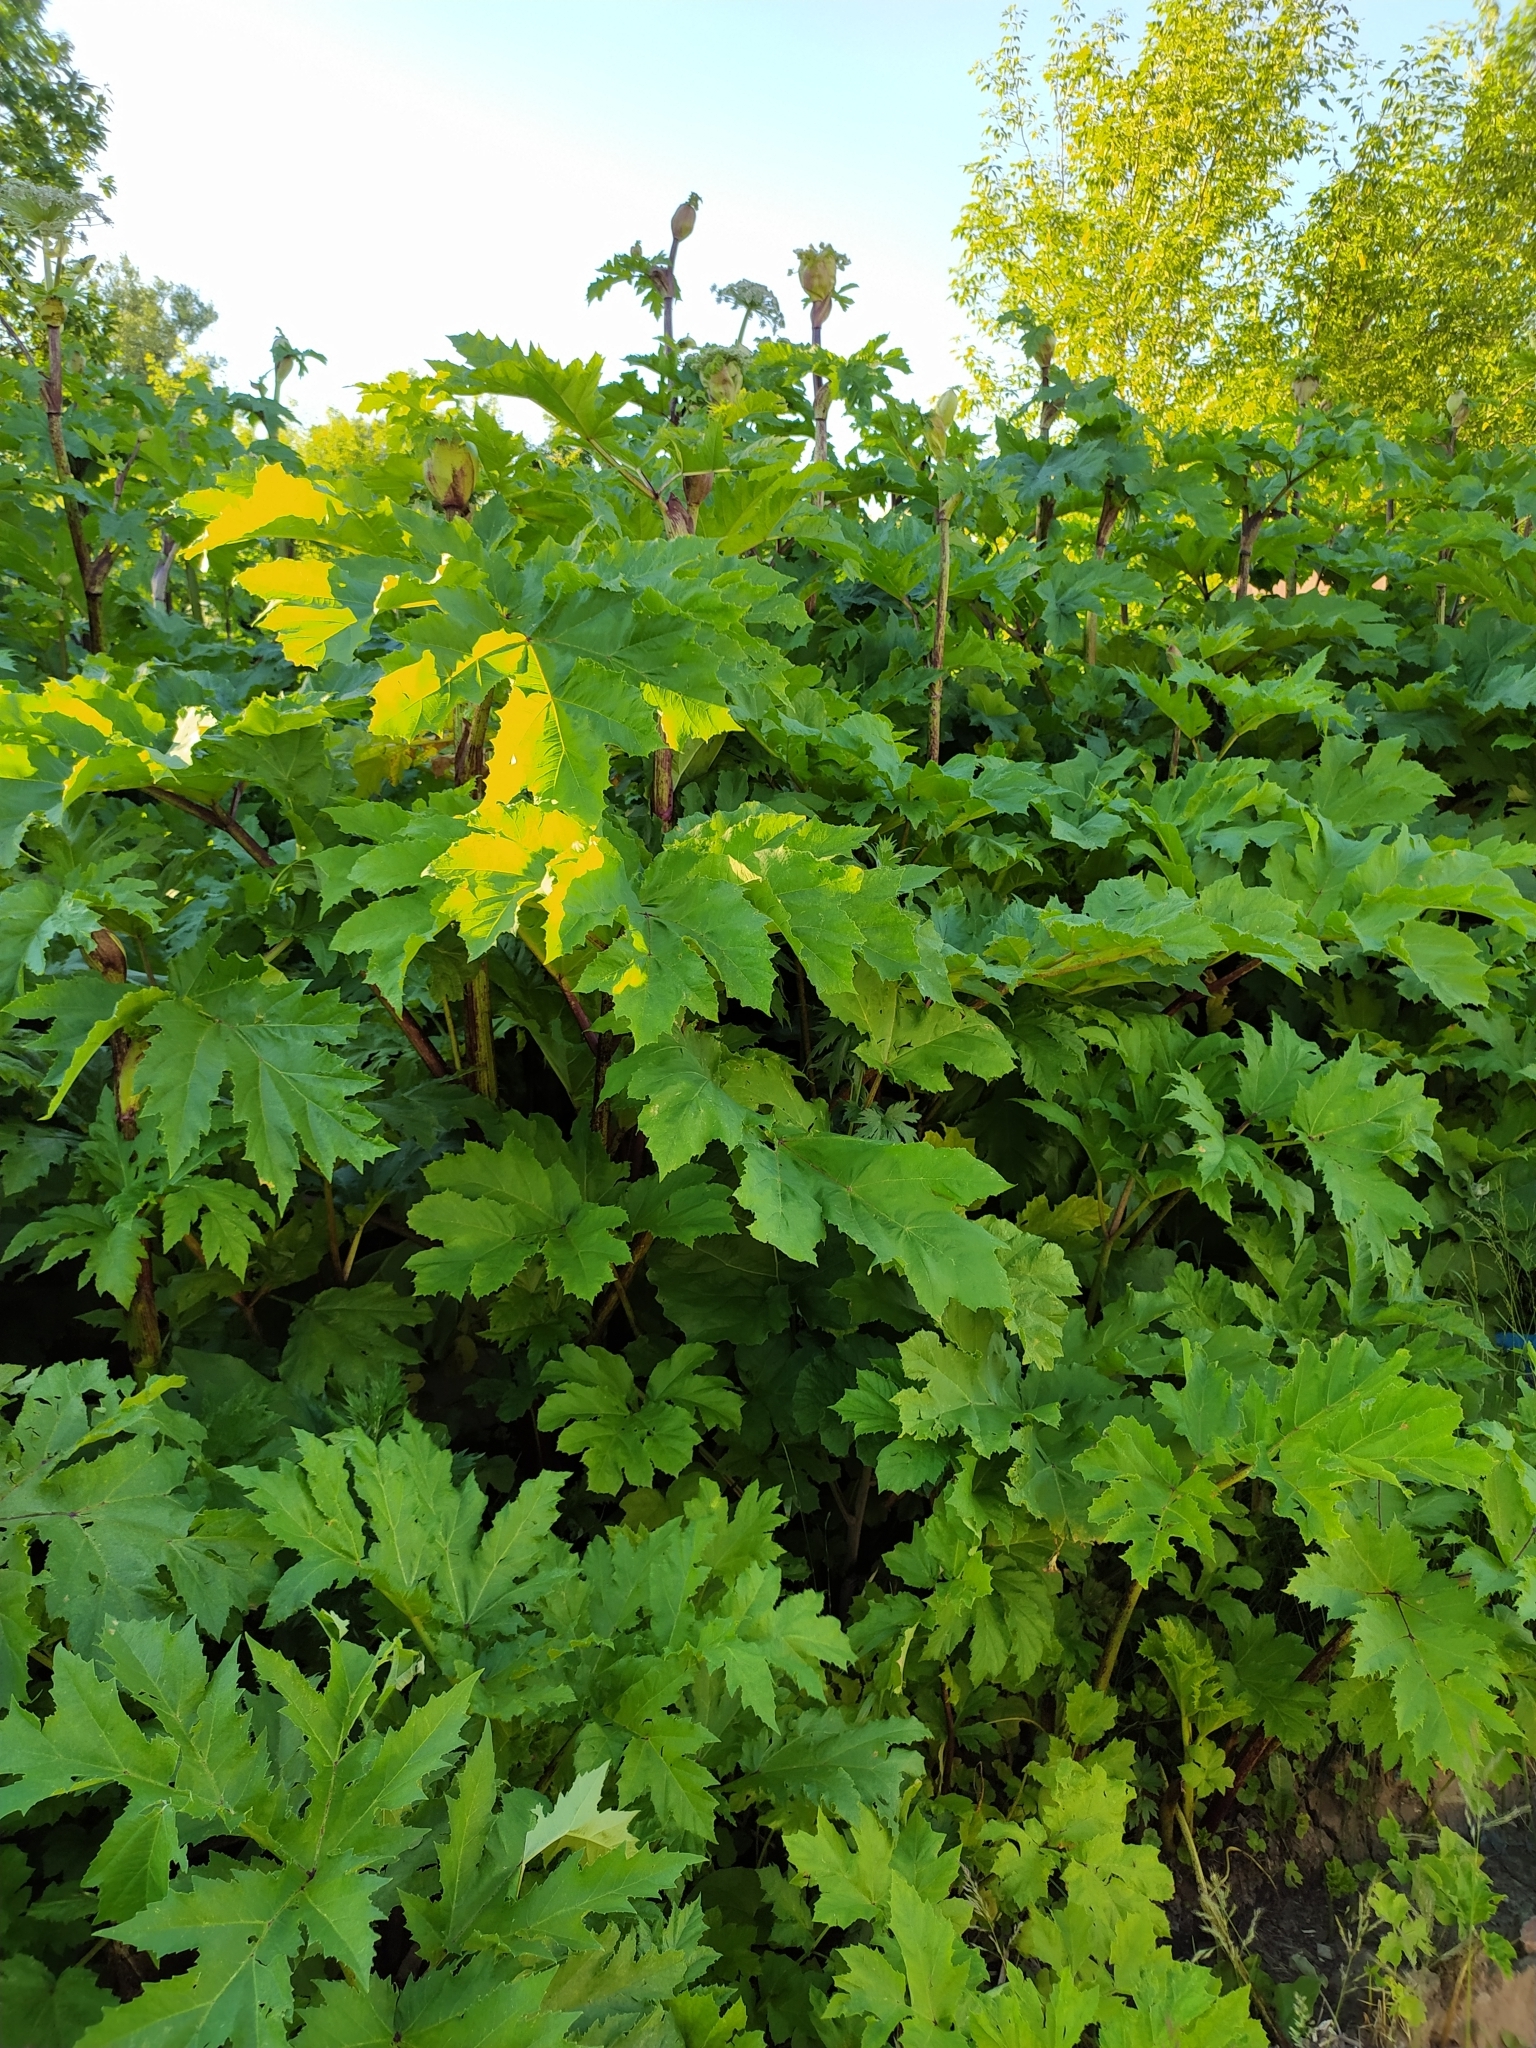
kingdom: Plantae
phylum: Tracheophyta
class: Magnoliopsida
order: Apiales
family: Apiaceae
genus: Heracleum
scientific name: Heracleum sosnowskyi
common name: Sosnowsky's hogweed
